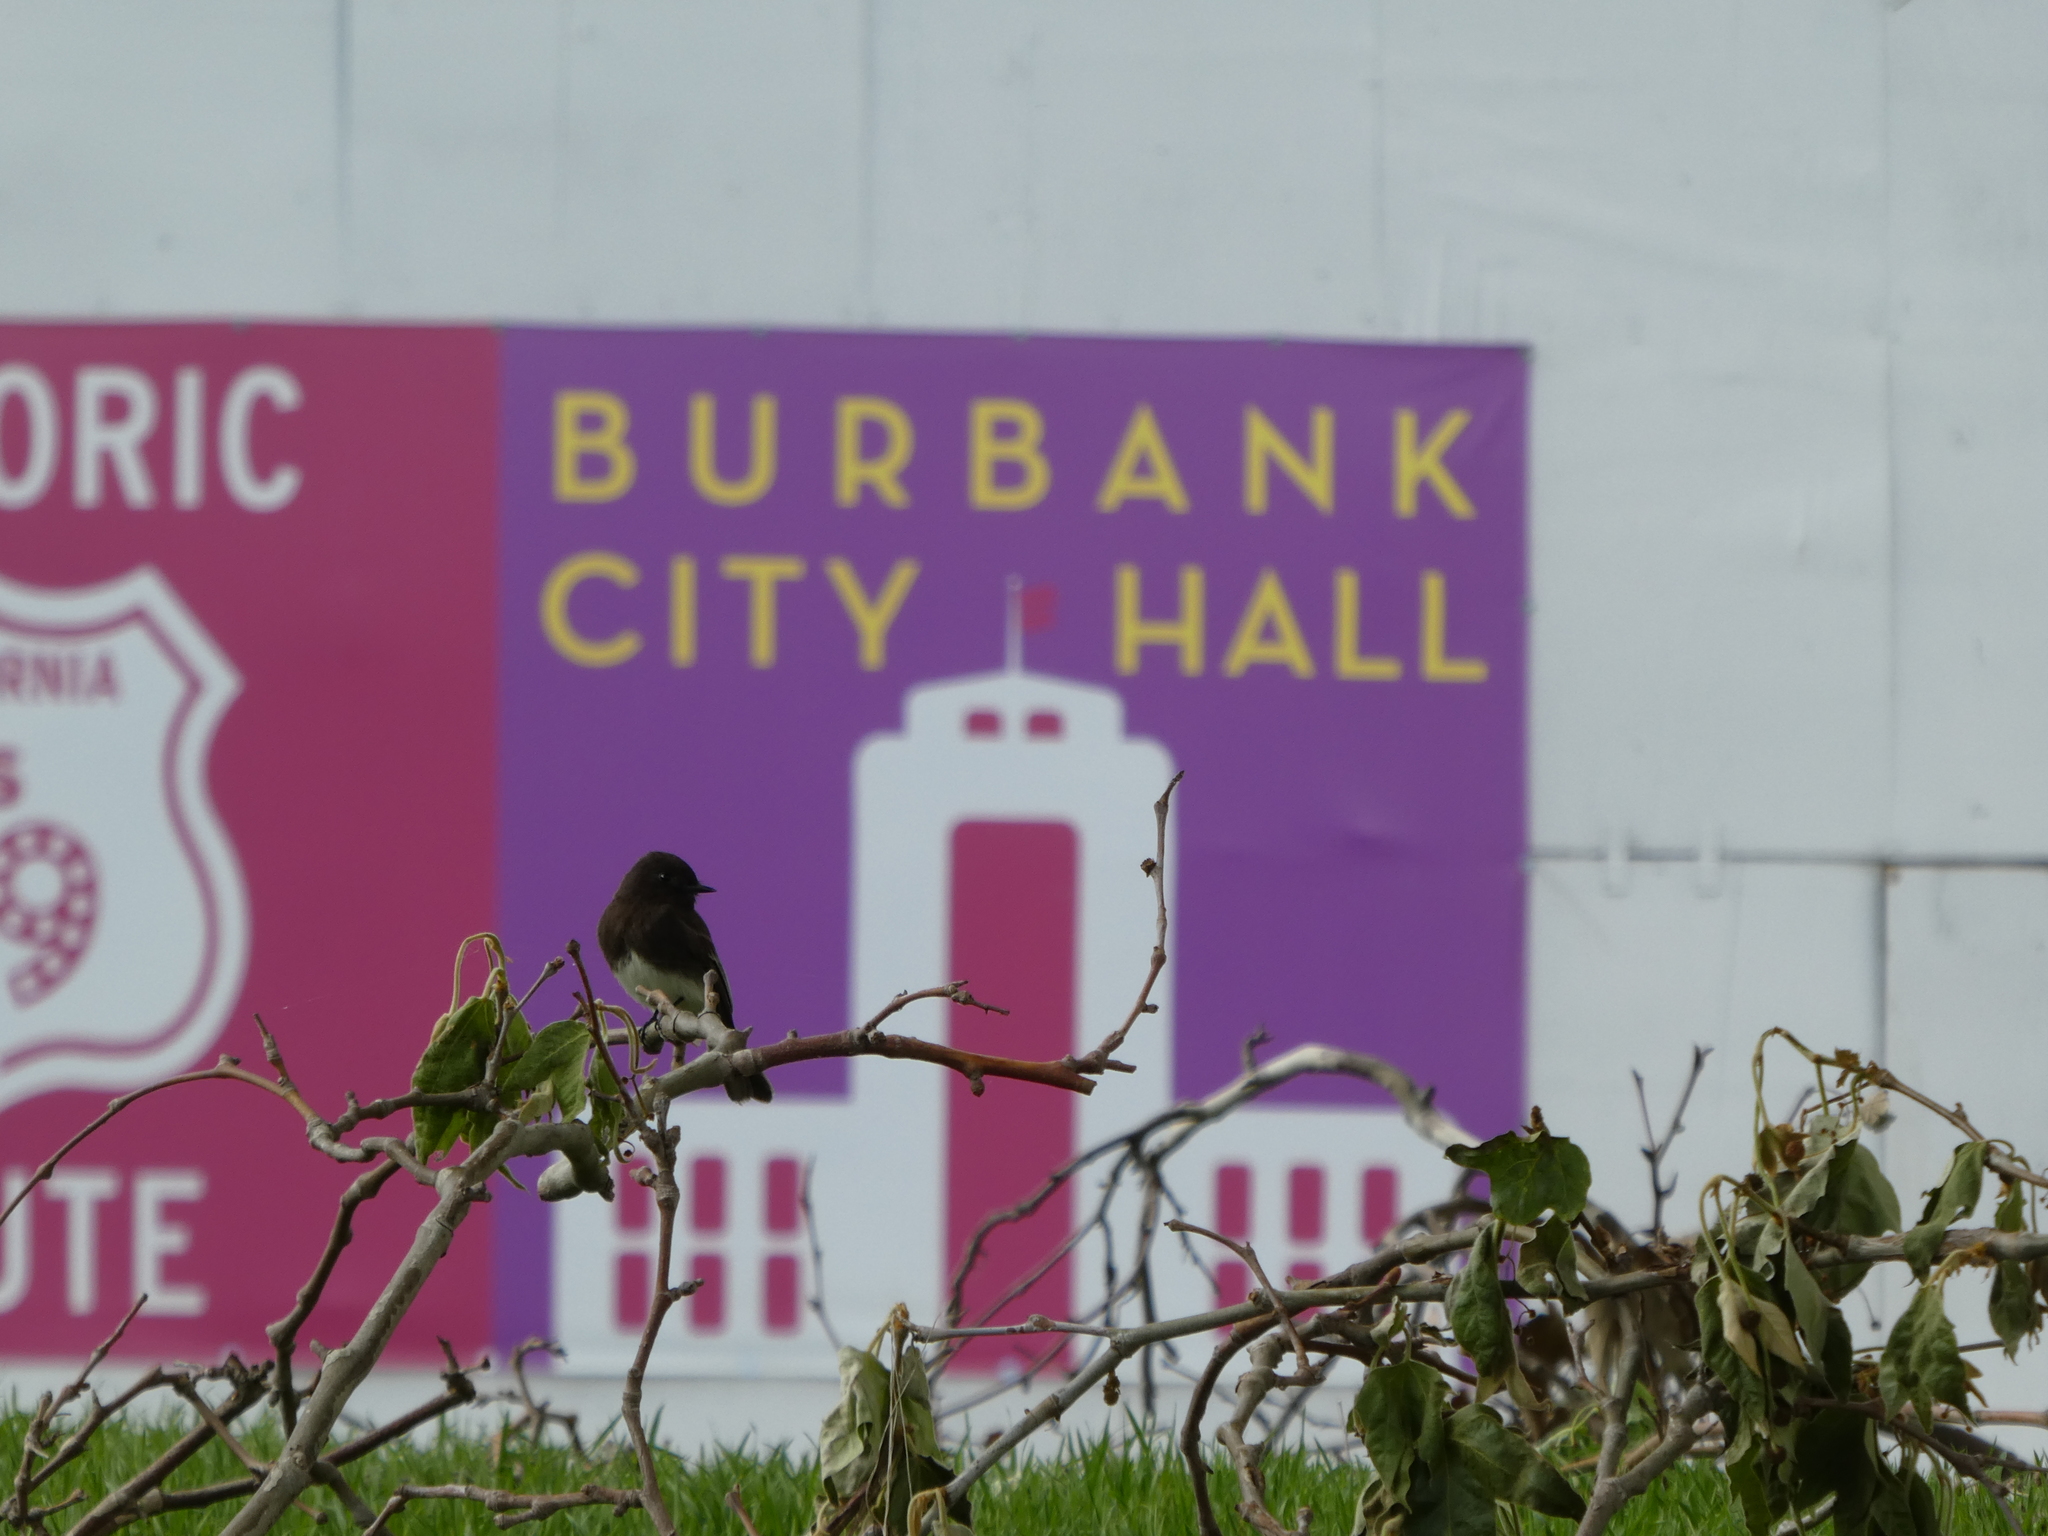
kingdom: Animalia
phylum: Chordata
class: Aves
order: Passeriformes
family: Tyrannidae
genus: Sayornis
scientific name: Sayornis nigricans
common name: Black phoebe
